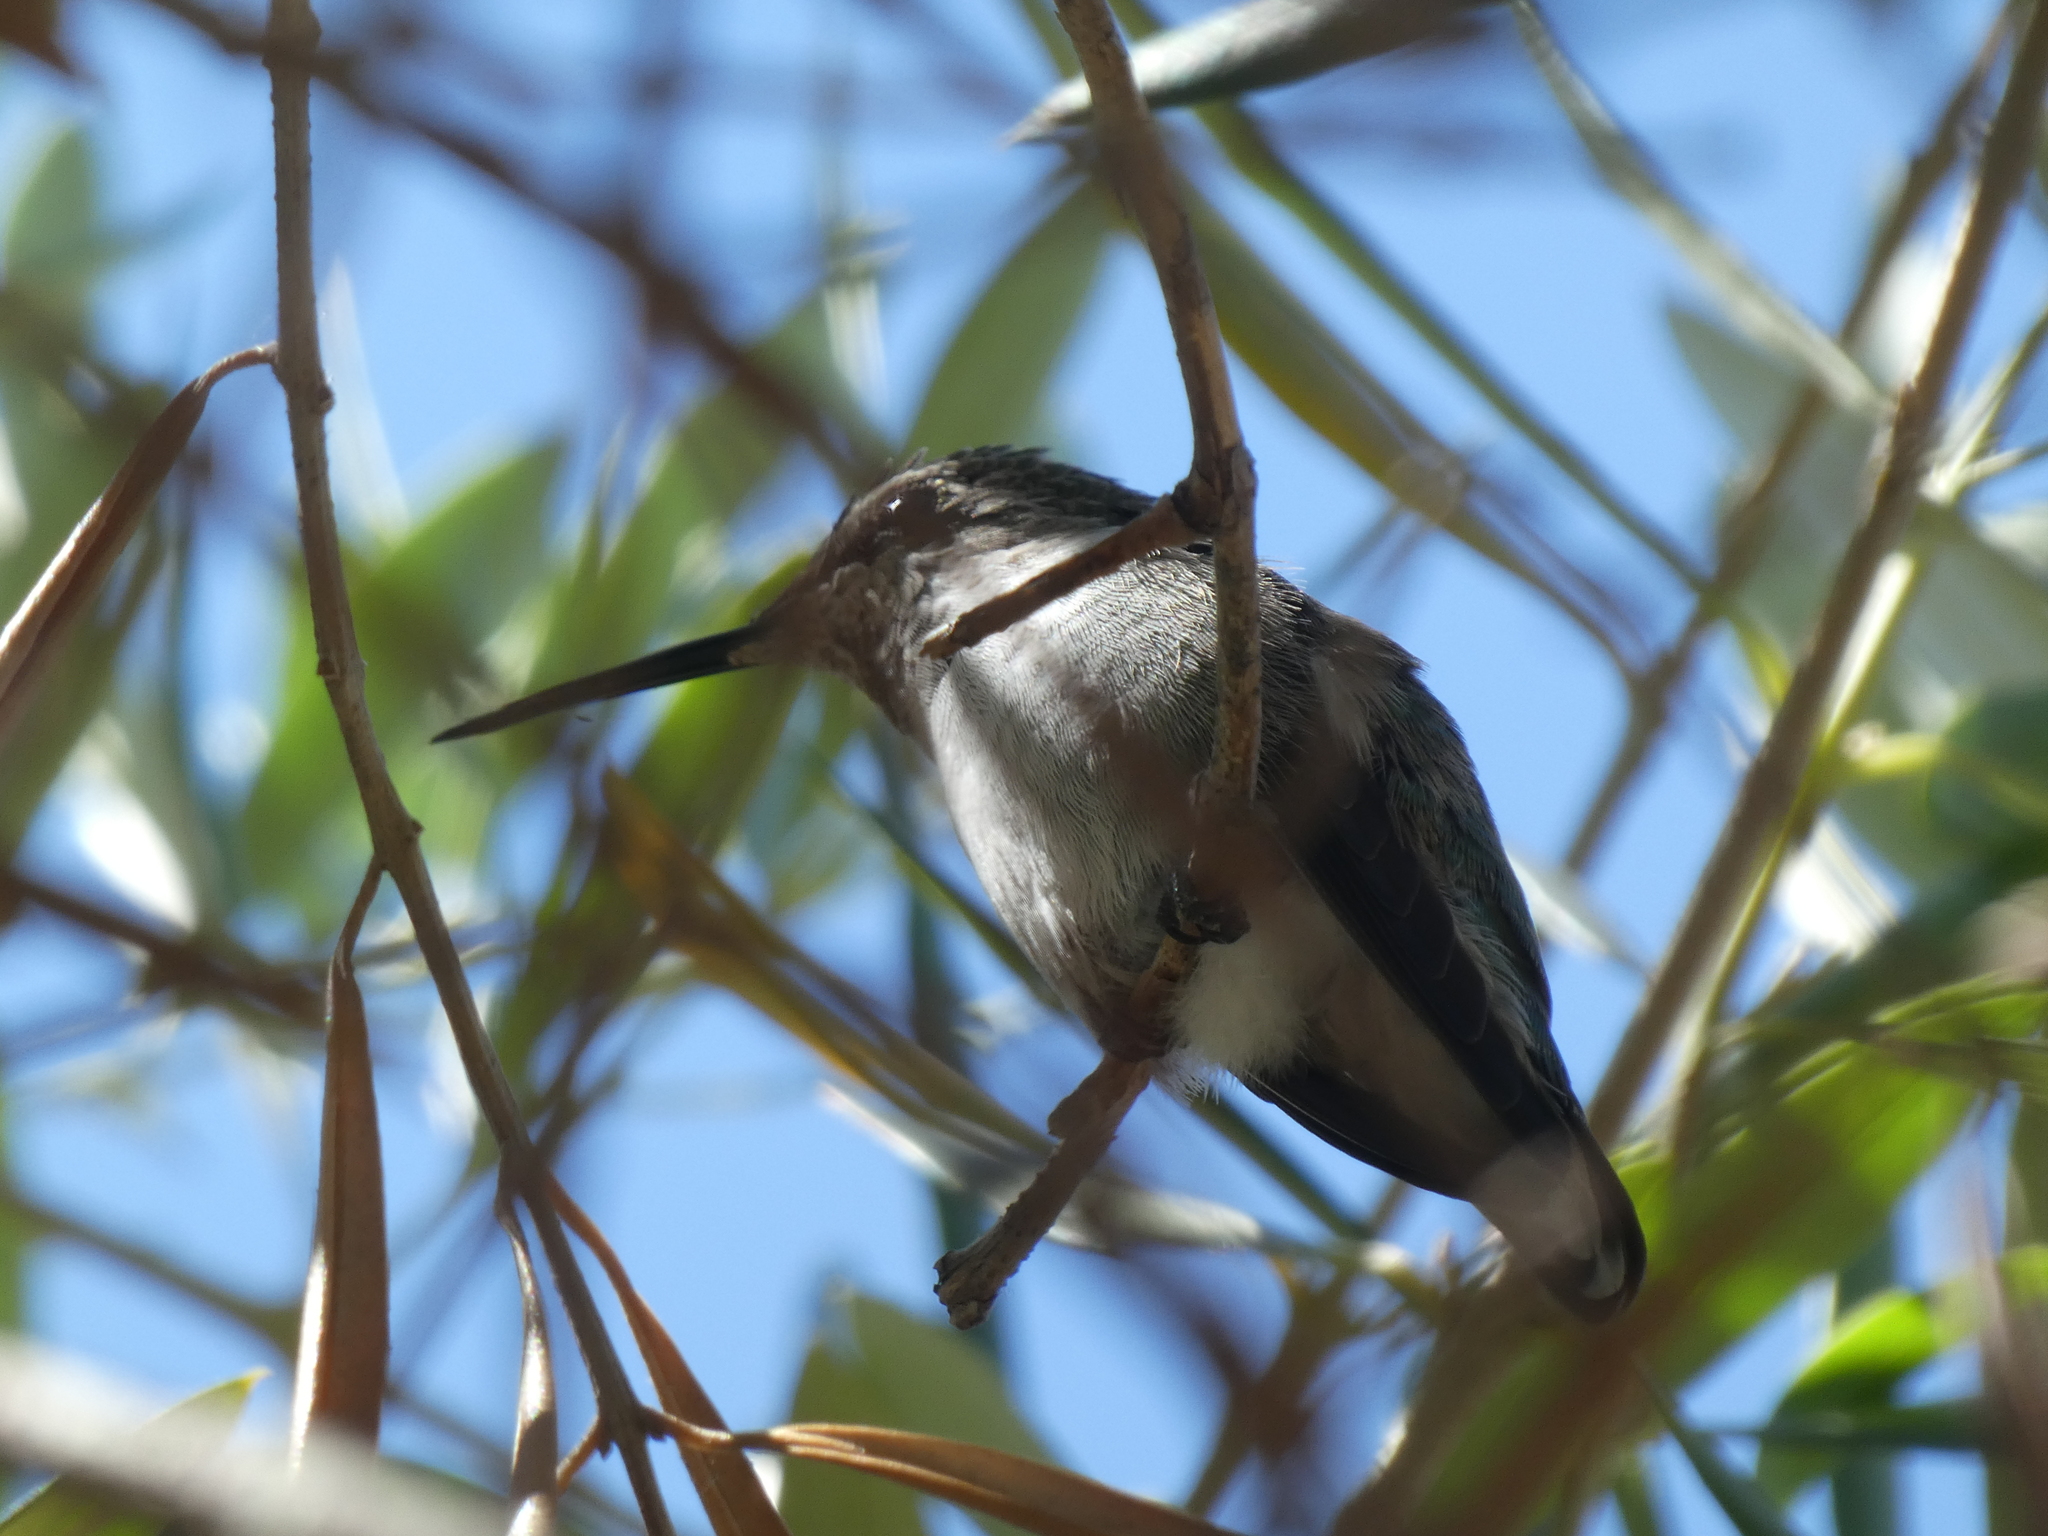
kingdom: Animalia
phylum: Chordata
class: Aves
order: Apodiformes
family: Trochilidae
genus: Calypte
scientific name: Calypte anna
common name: Anna's hummingbird
